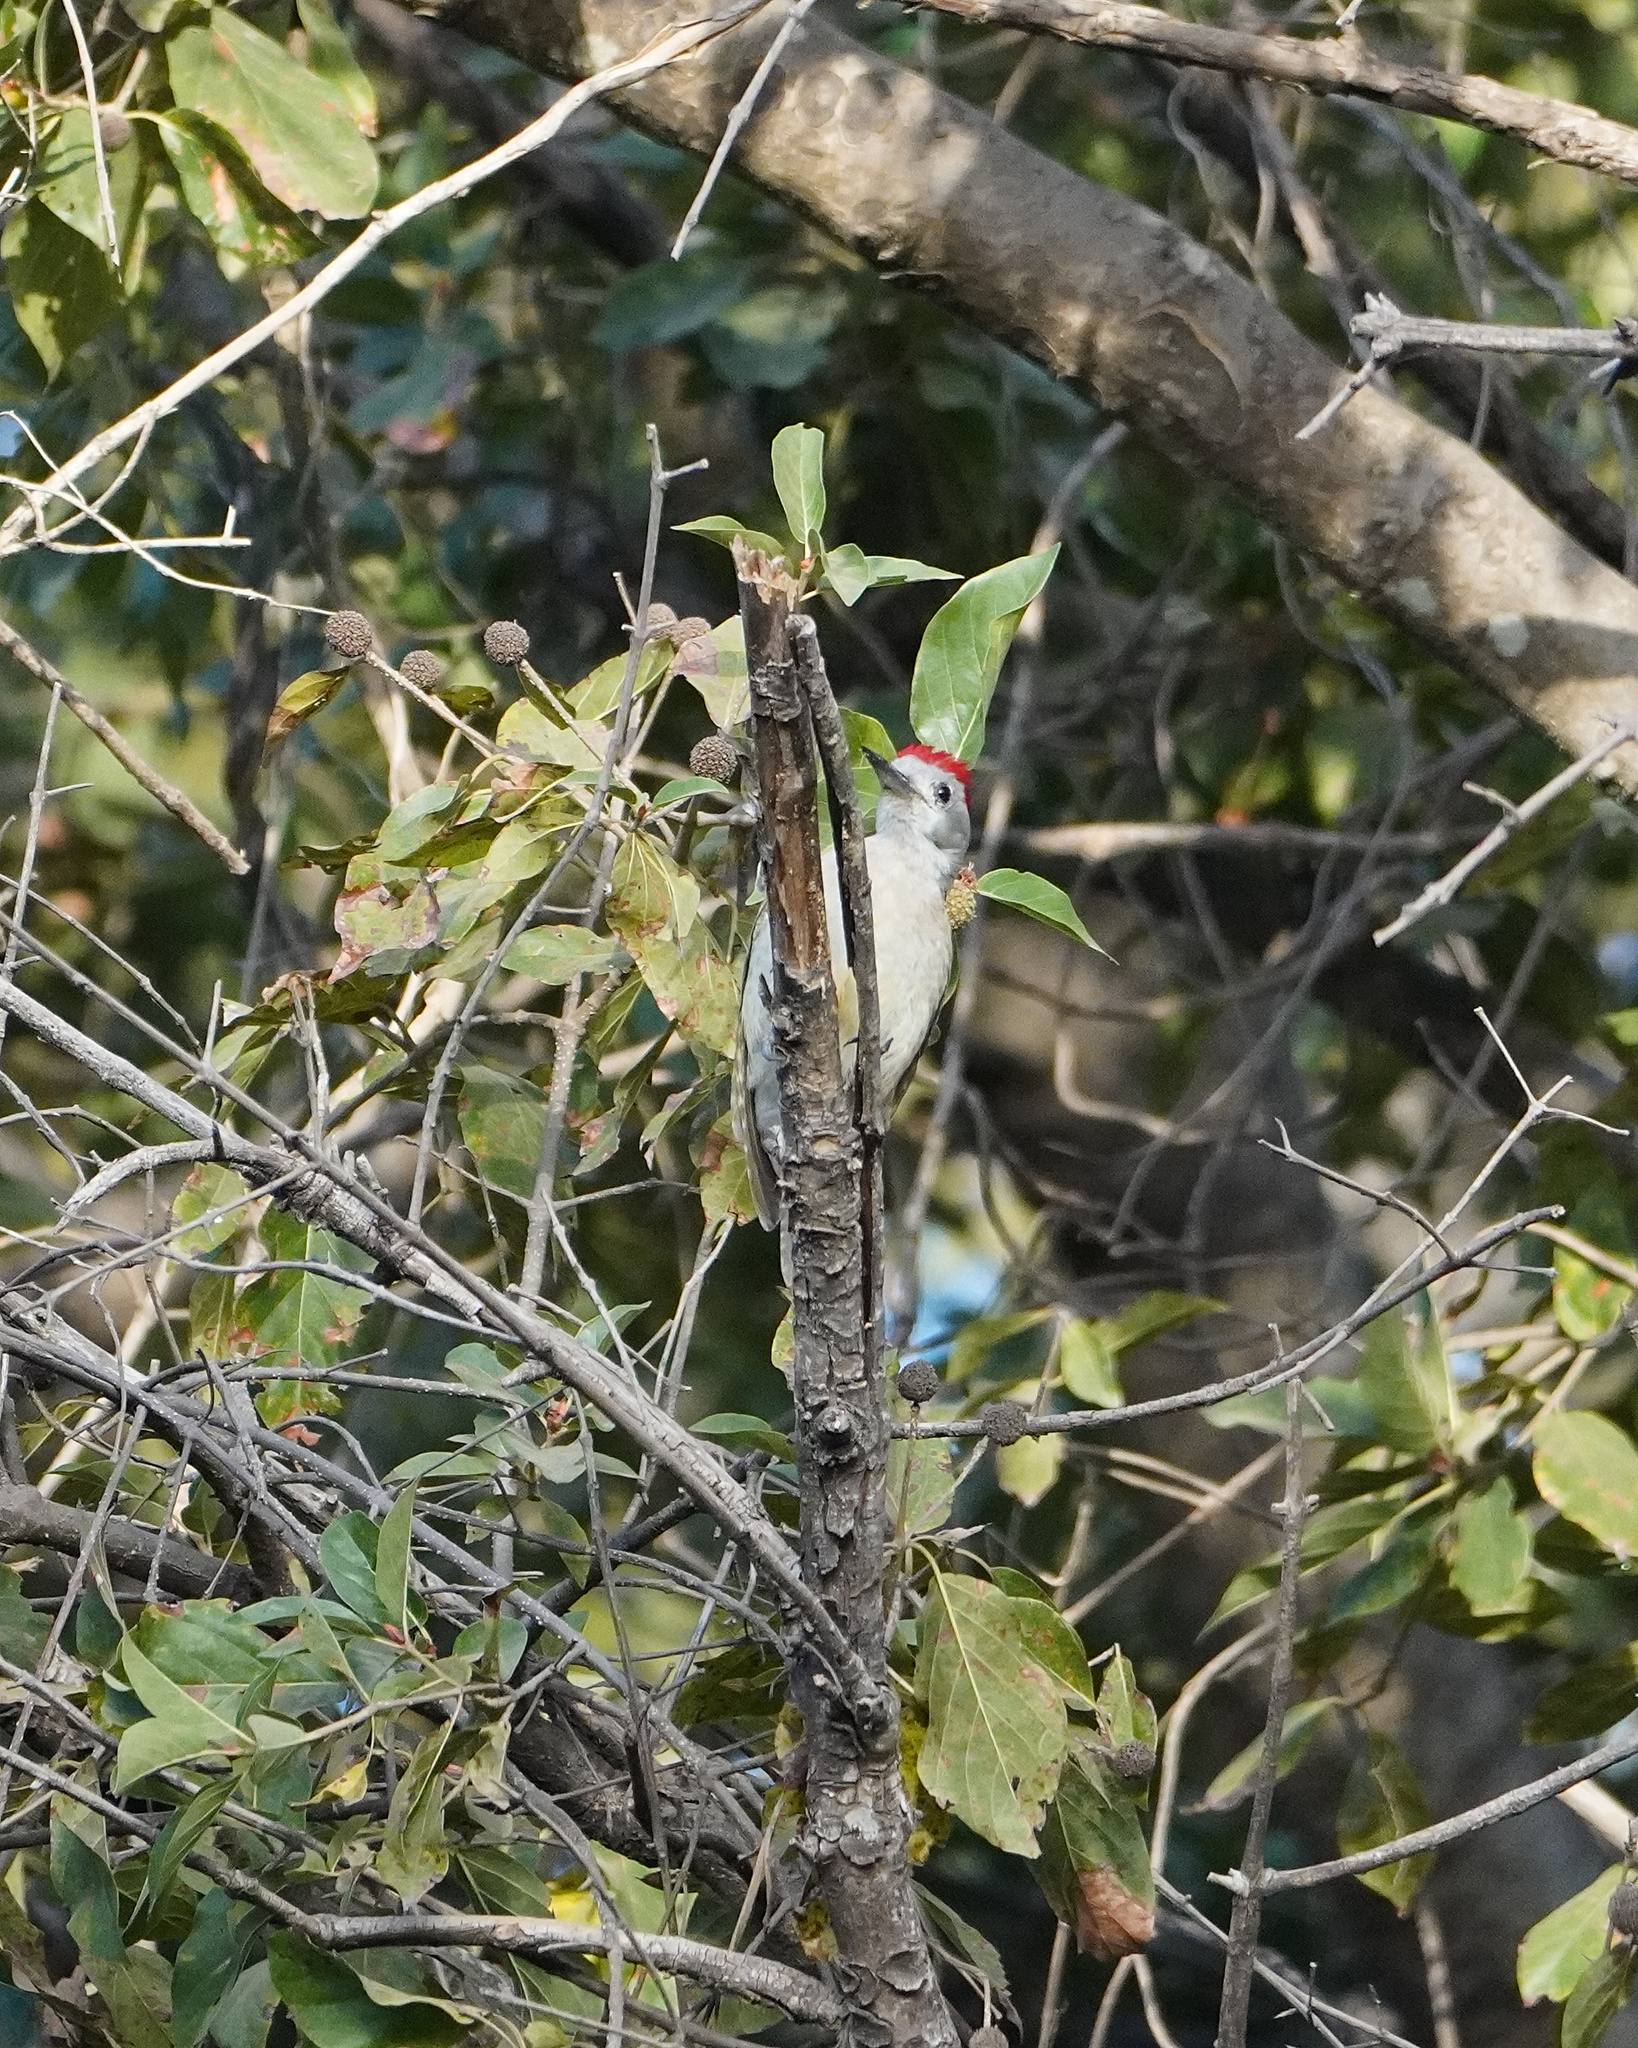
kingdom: Animalia
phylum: Chordata
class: Aves
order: Piciformes
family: Picidae
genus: Dendropicos
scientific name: Dendropicos goertae
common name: African grey woodpecker
